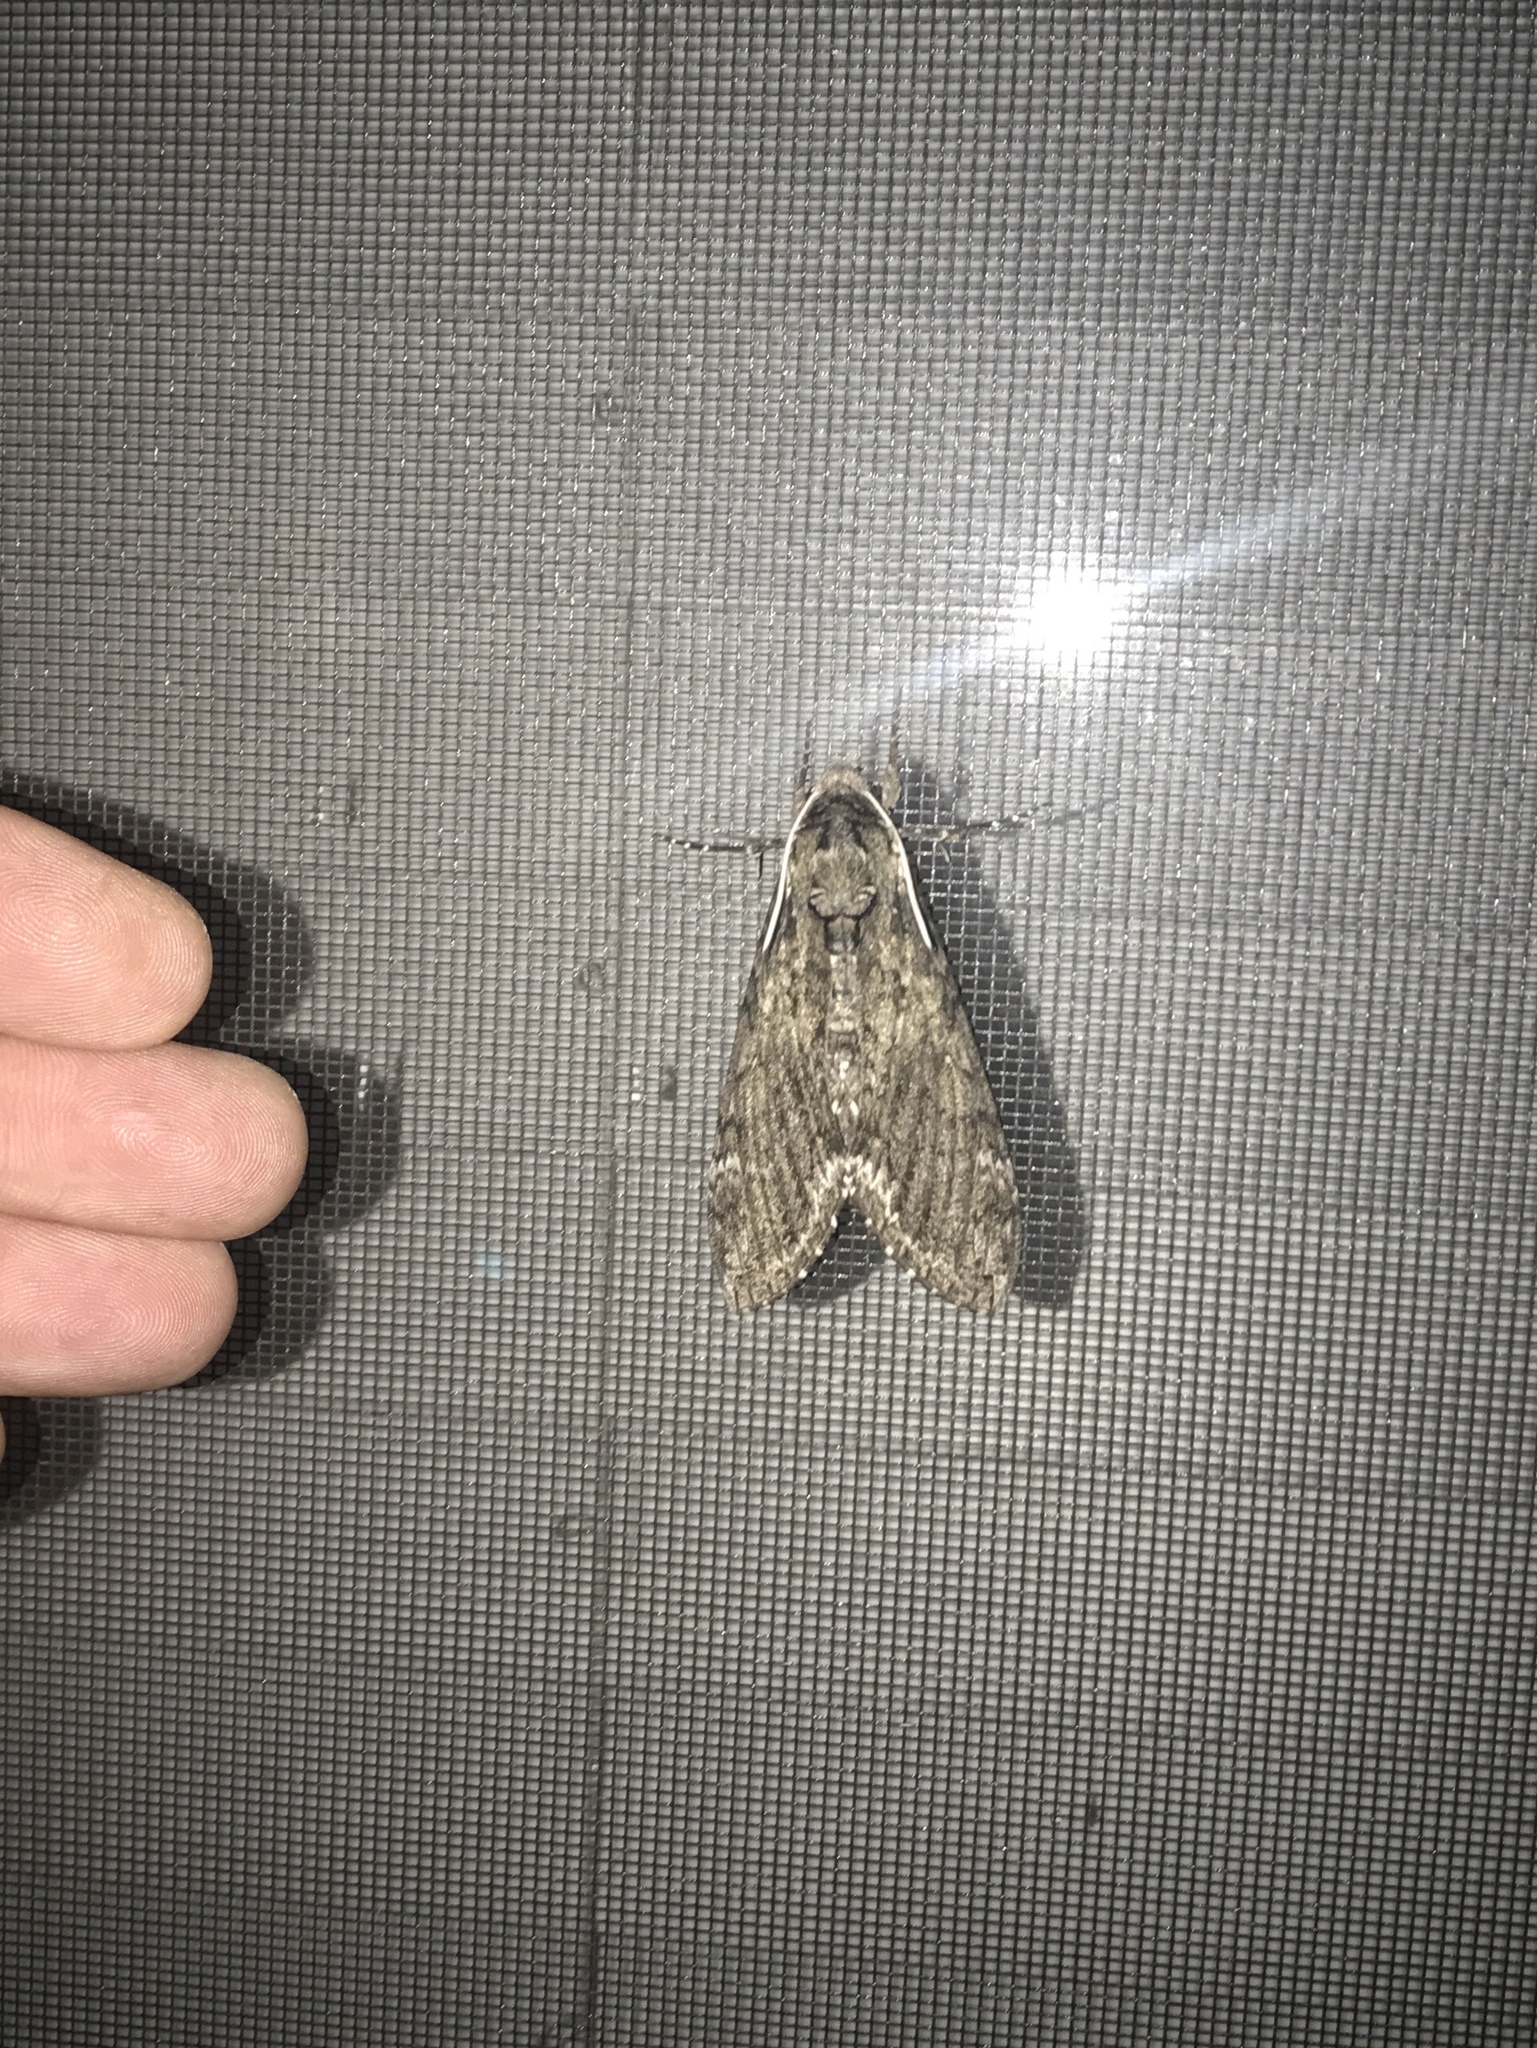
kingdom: Animalia
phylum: Arthropoda
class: Insecta
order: Lepidoptera
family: Sphingidae
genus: Manduca
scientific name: Manduca sexta
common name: Carolina sphinx
